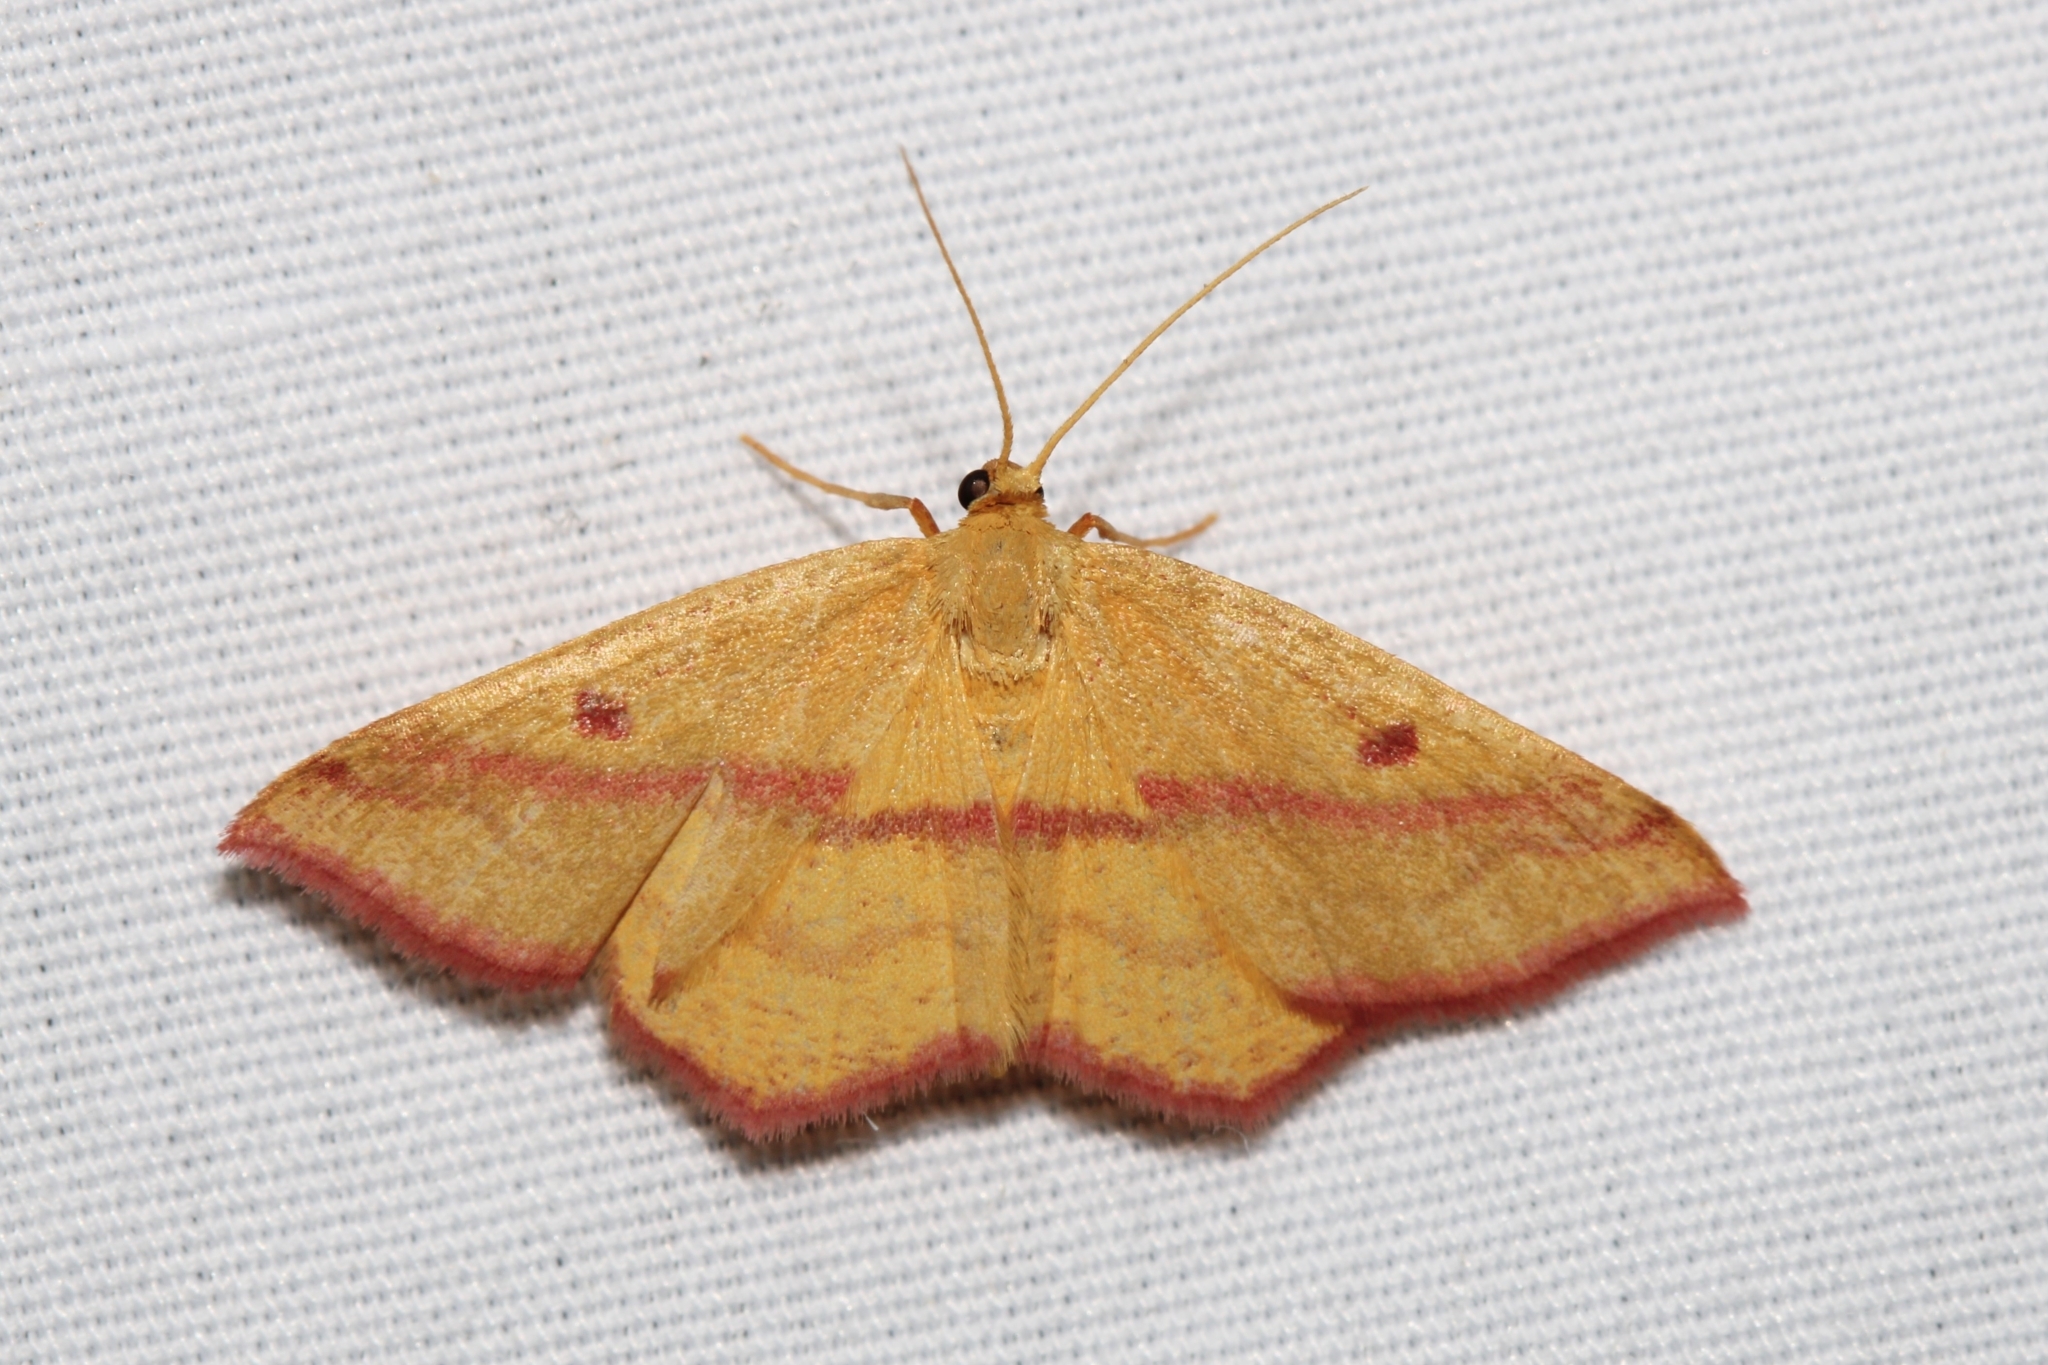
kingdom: Animalia
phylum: Arthropoda
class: Insecta
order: Lepidoptera
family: Geometridae
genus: Haematopis
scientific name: Haematopis grataria
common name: Chickweed geometer
